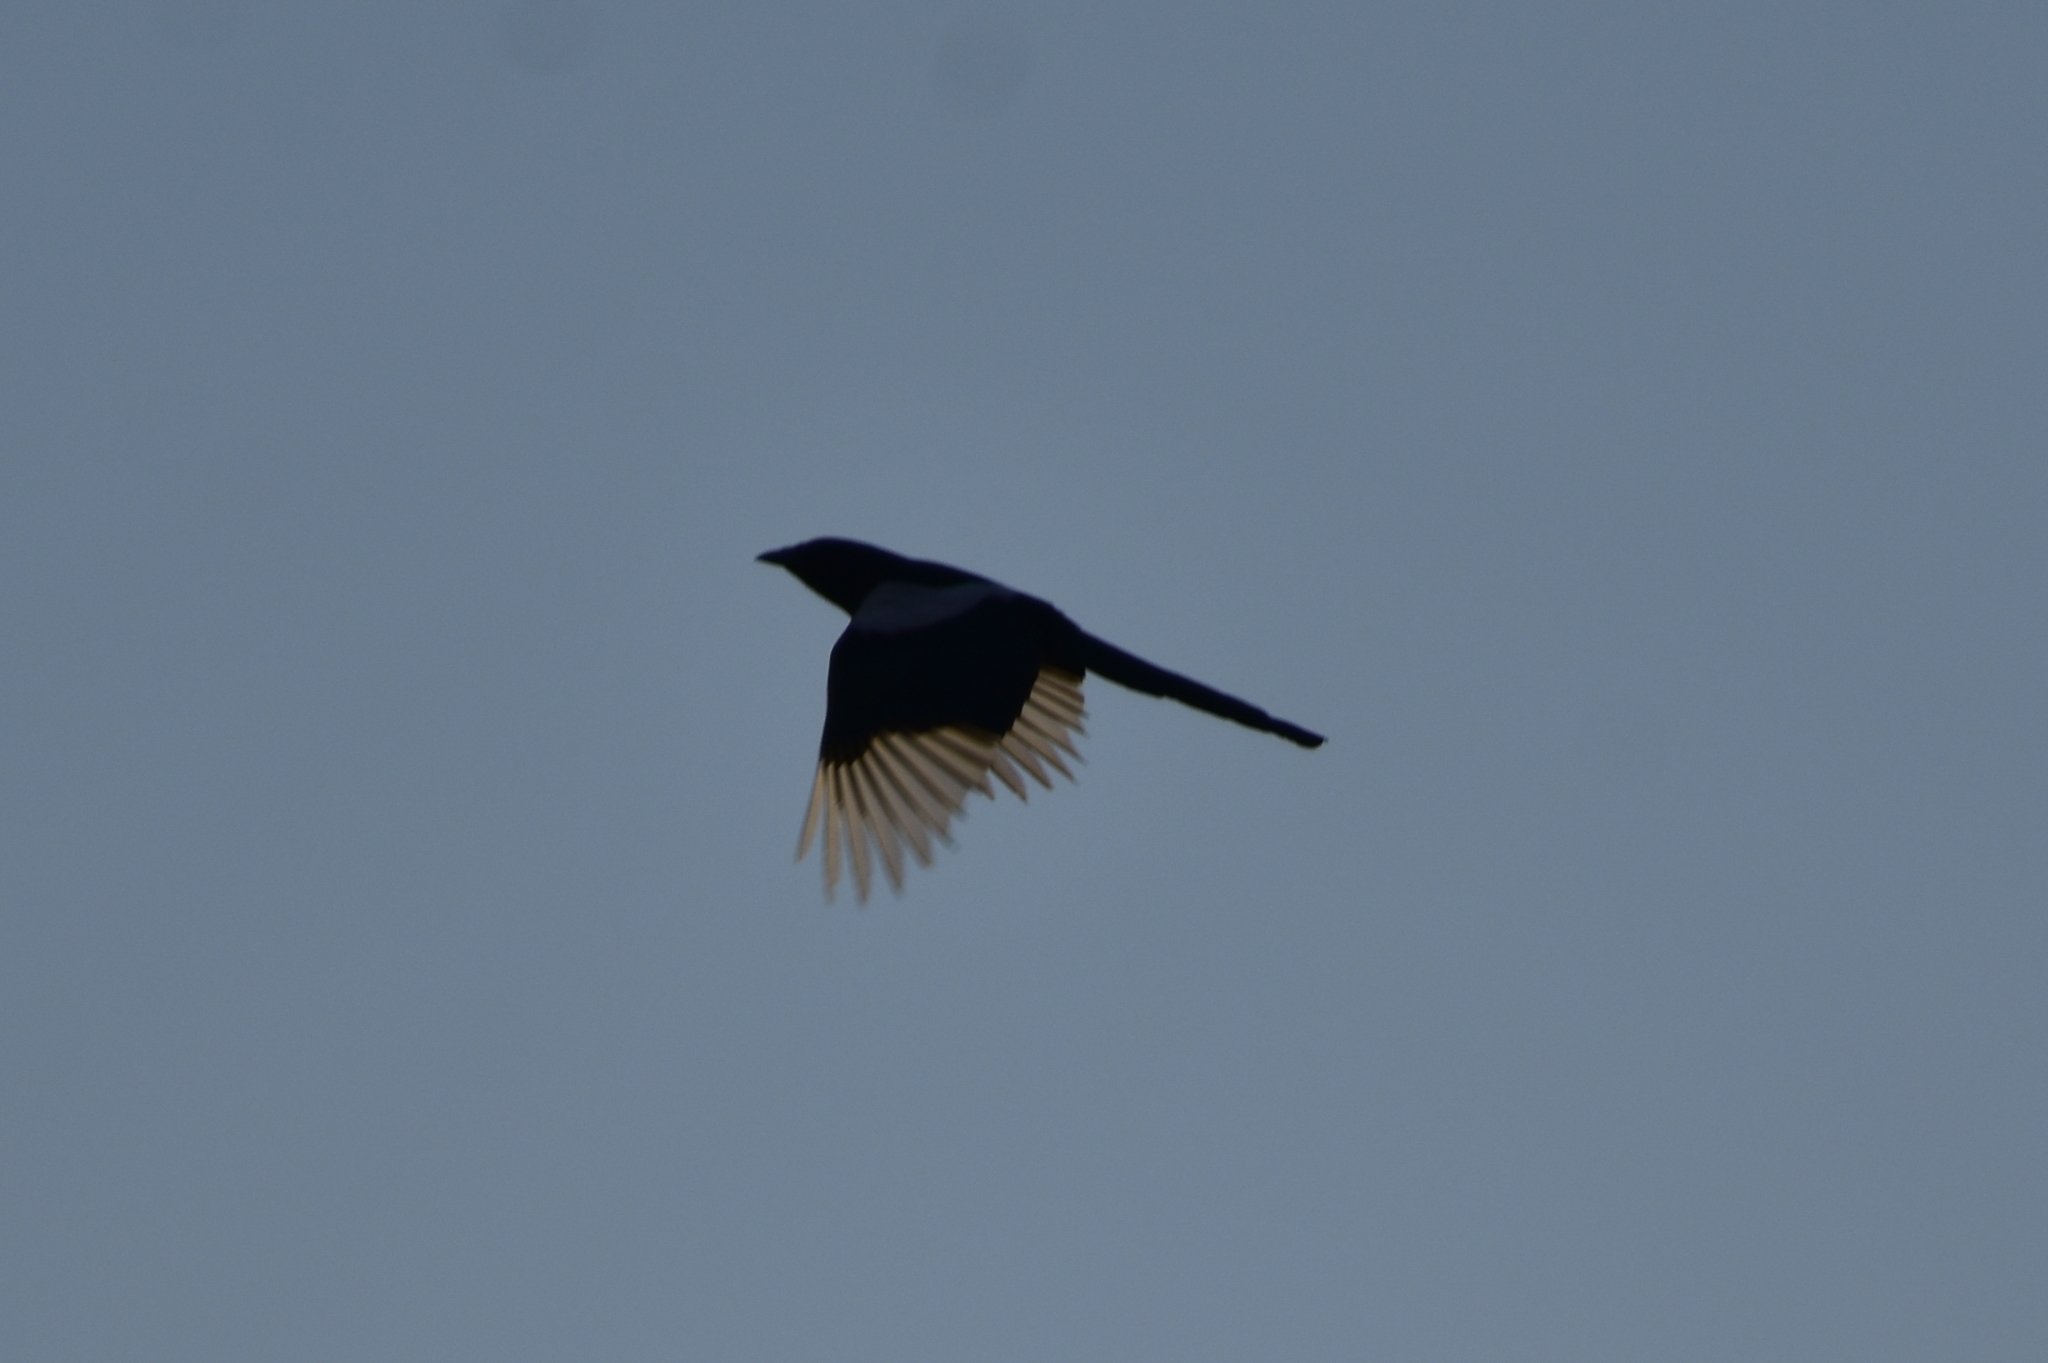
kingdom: Animalia
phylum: Chordata
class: Aves
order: Passeriformes
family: Corvidae
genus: Pica
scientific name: Pica pica
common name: Eurasian magpie
